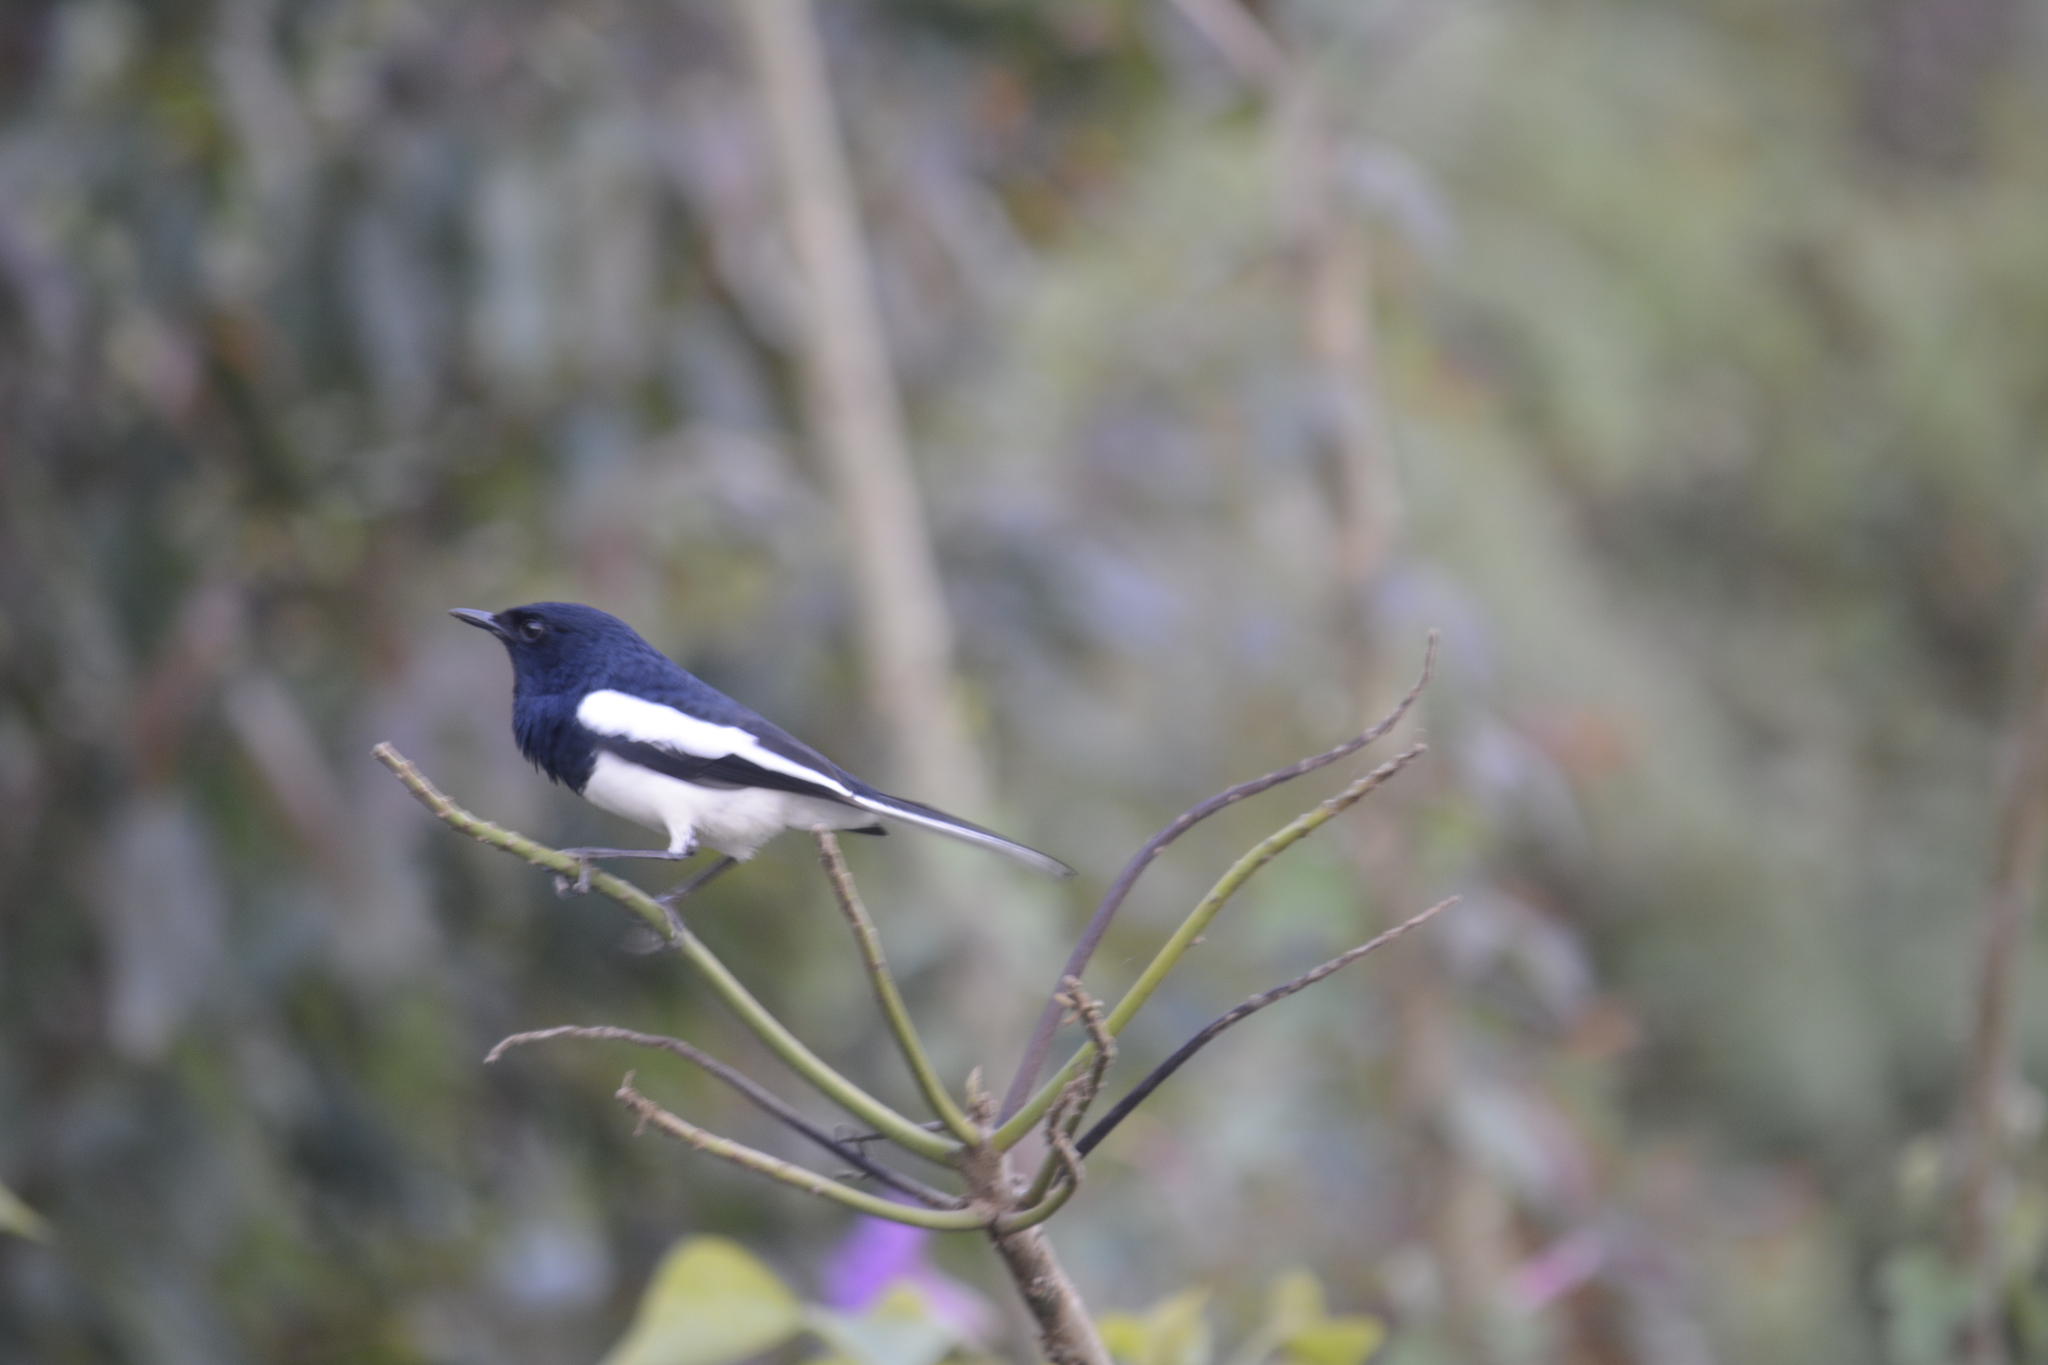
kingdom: Animalia
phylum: Chordata
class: Aves
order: Passeriformes
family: Muscicapidae
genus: Copsychus
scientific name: Copsychus saularis
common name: Oriental magpie-robin
